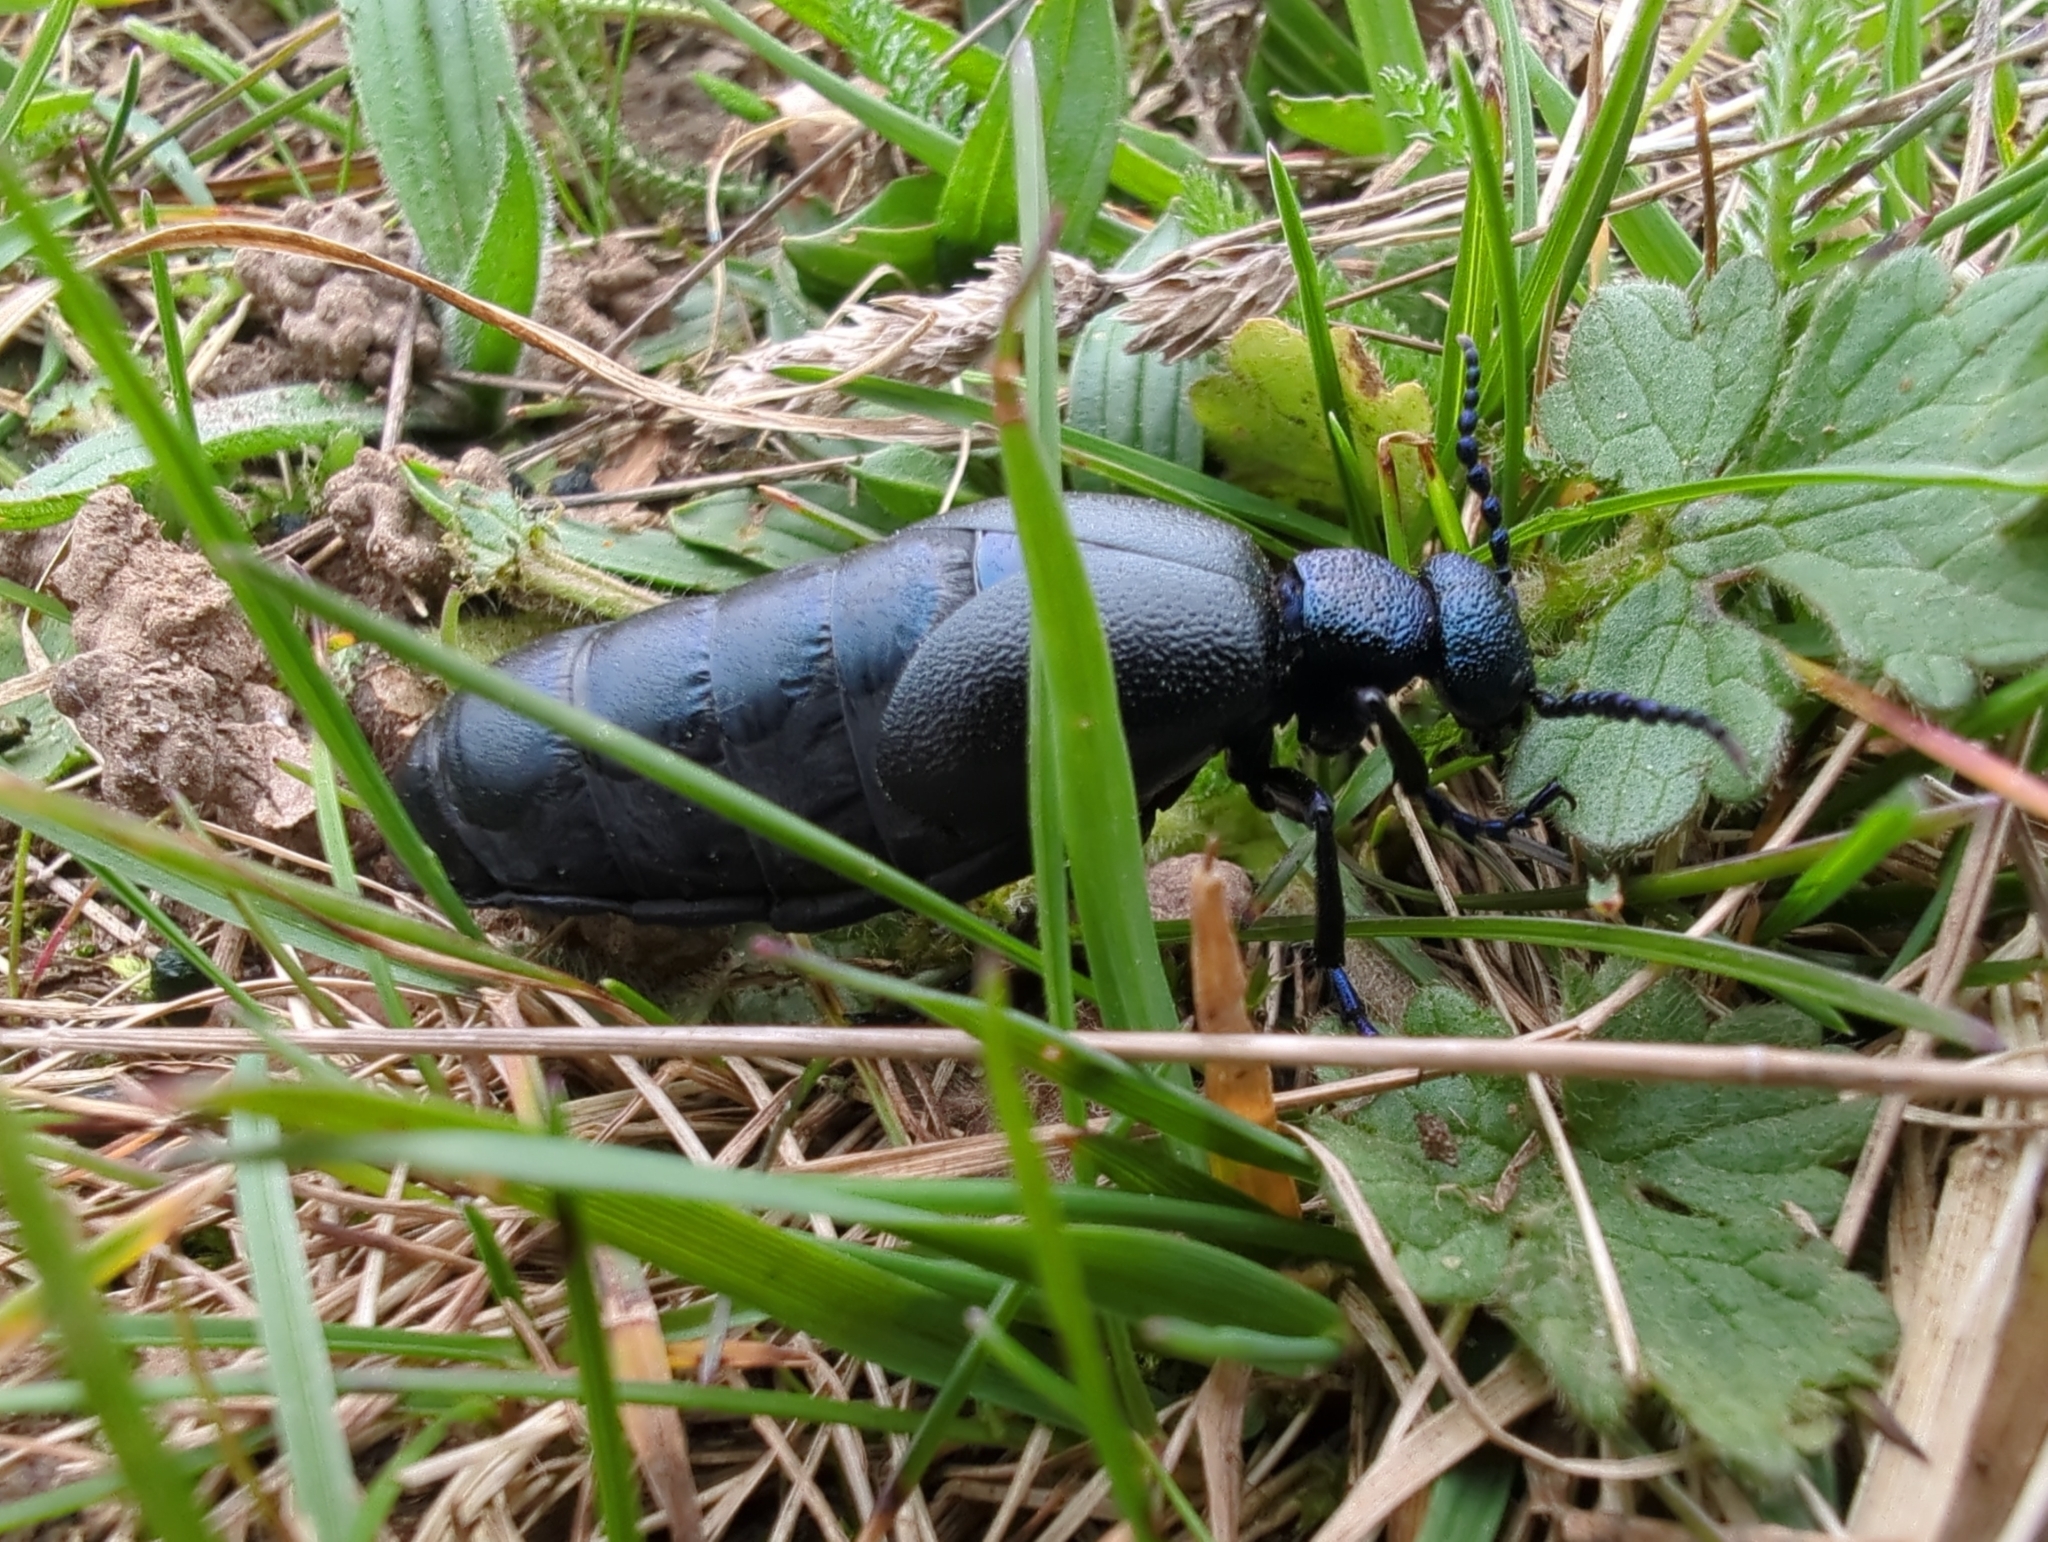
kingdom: Animalia
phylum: Arthropoda
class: Insecta
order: Coleoptera
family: Meloidae
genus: Meloe
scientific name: Meloe proscarabaeus
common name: Black oil-beetle
